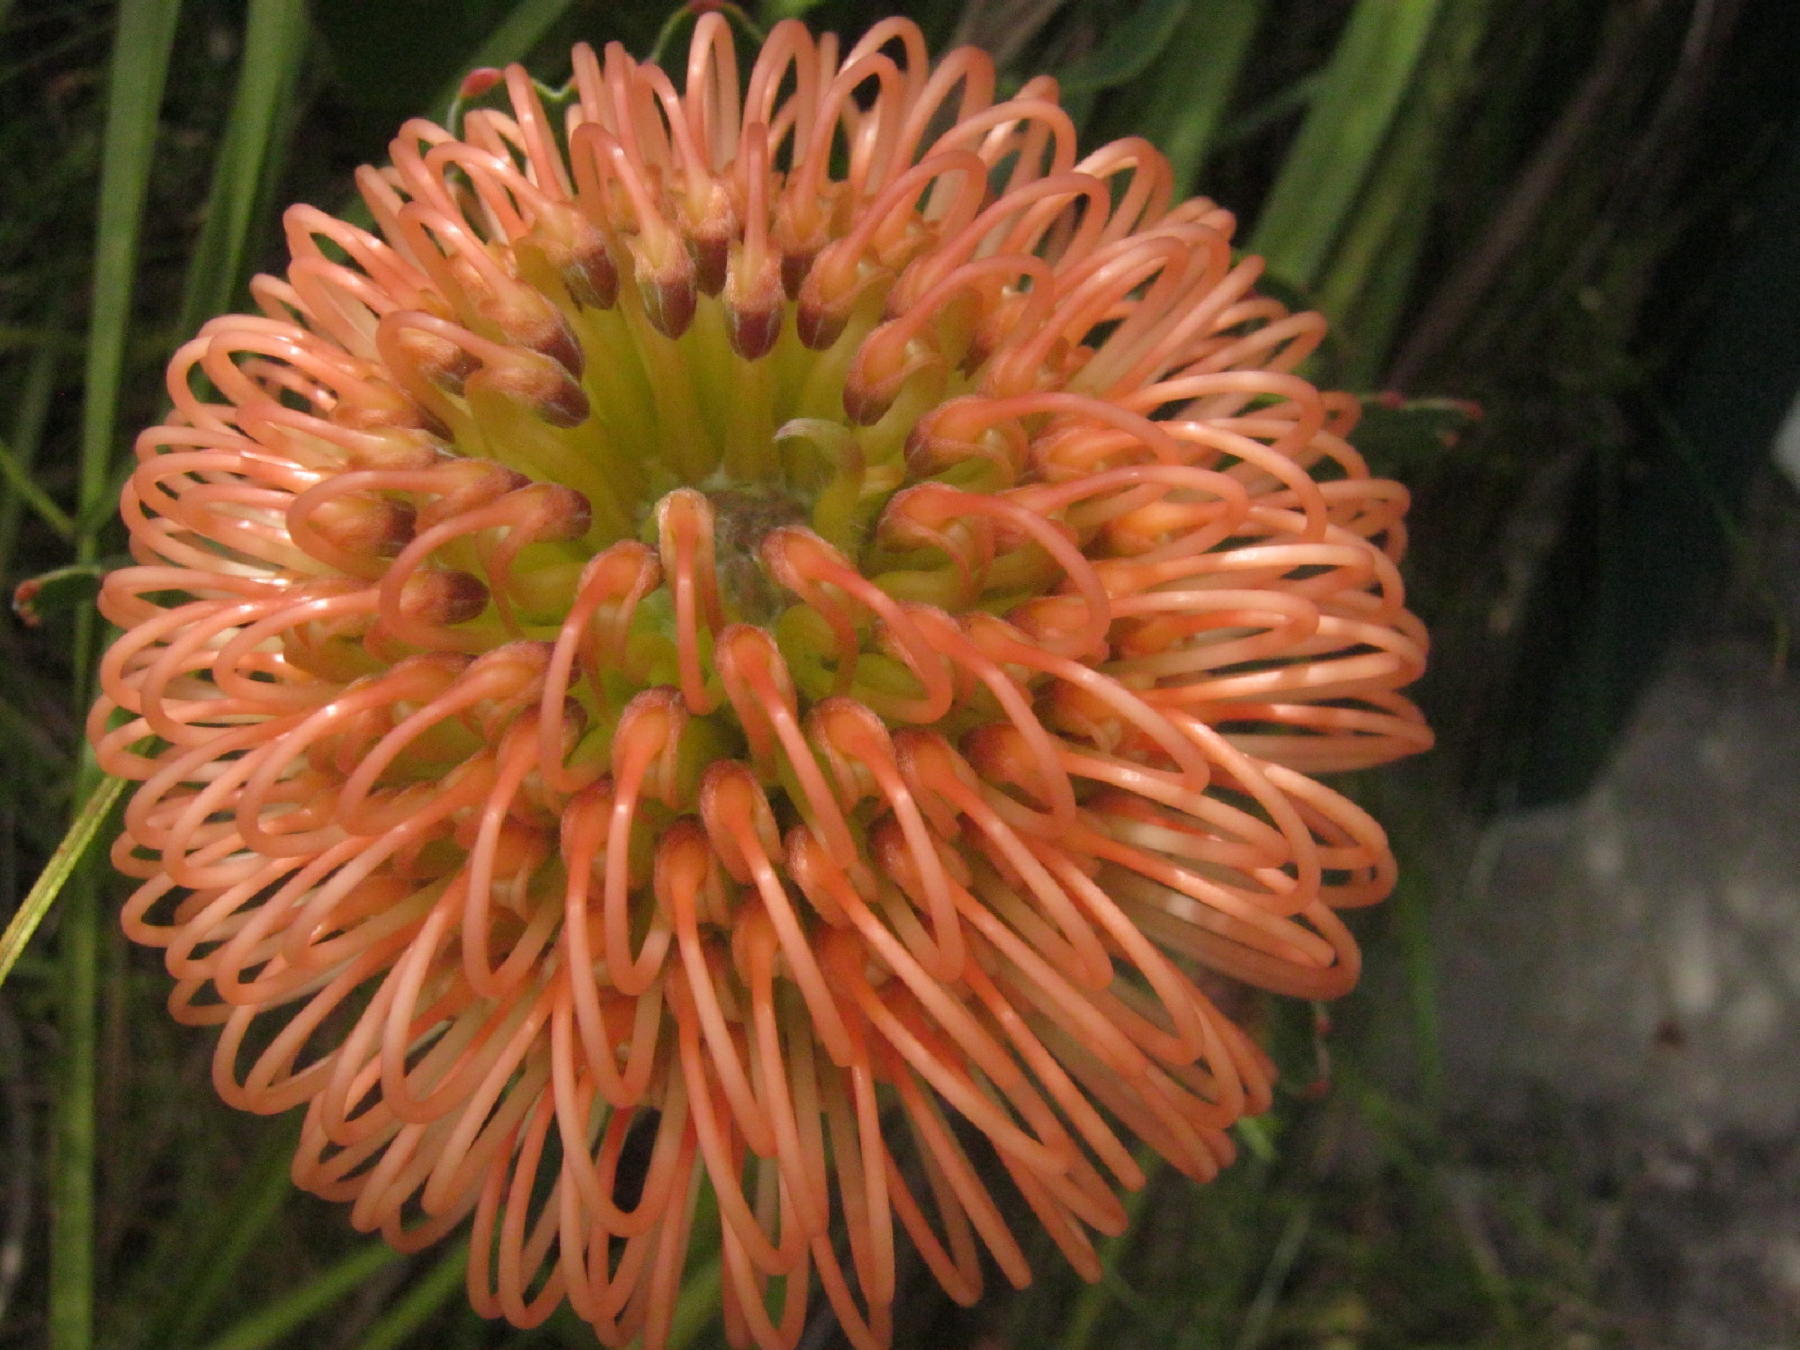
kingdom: Plantae
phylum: Tracheophyta
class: Magnoliopsida
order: Proteales
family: Proteaceae
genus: Leucospermum
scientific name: Leucospermum cordifolium
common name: Red pincushion-protea
